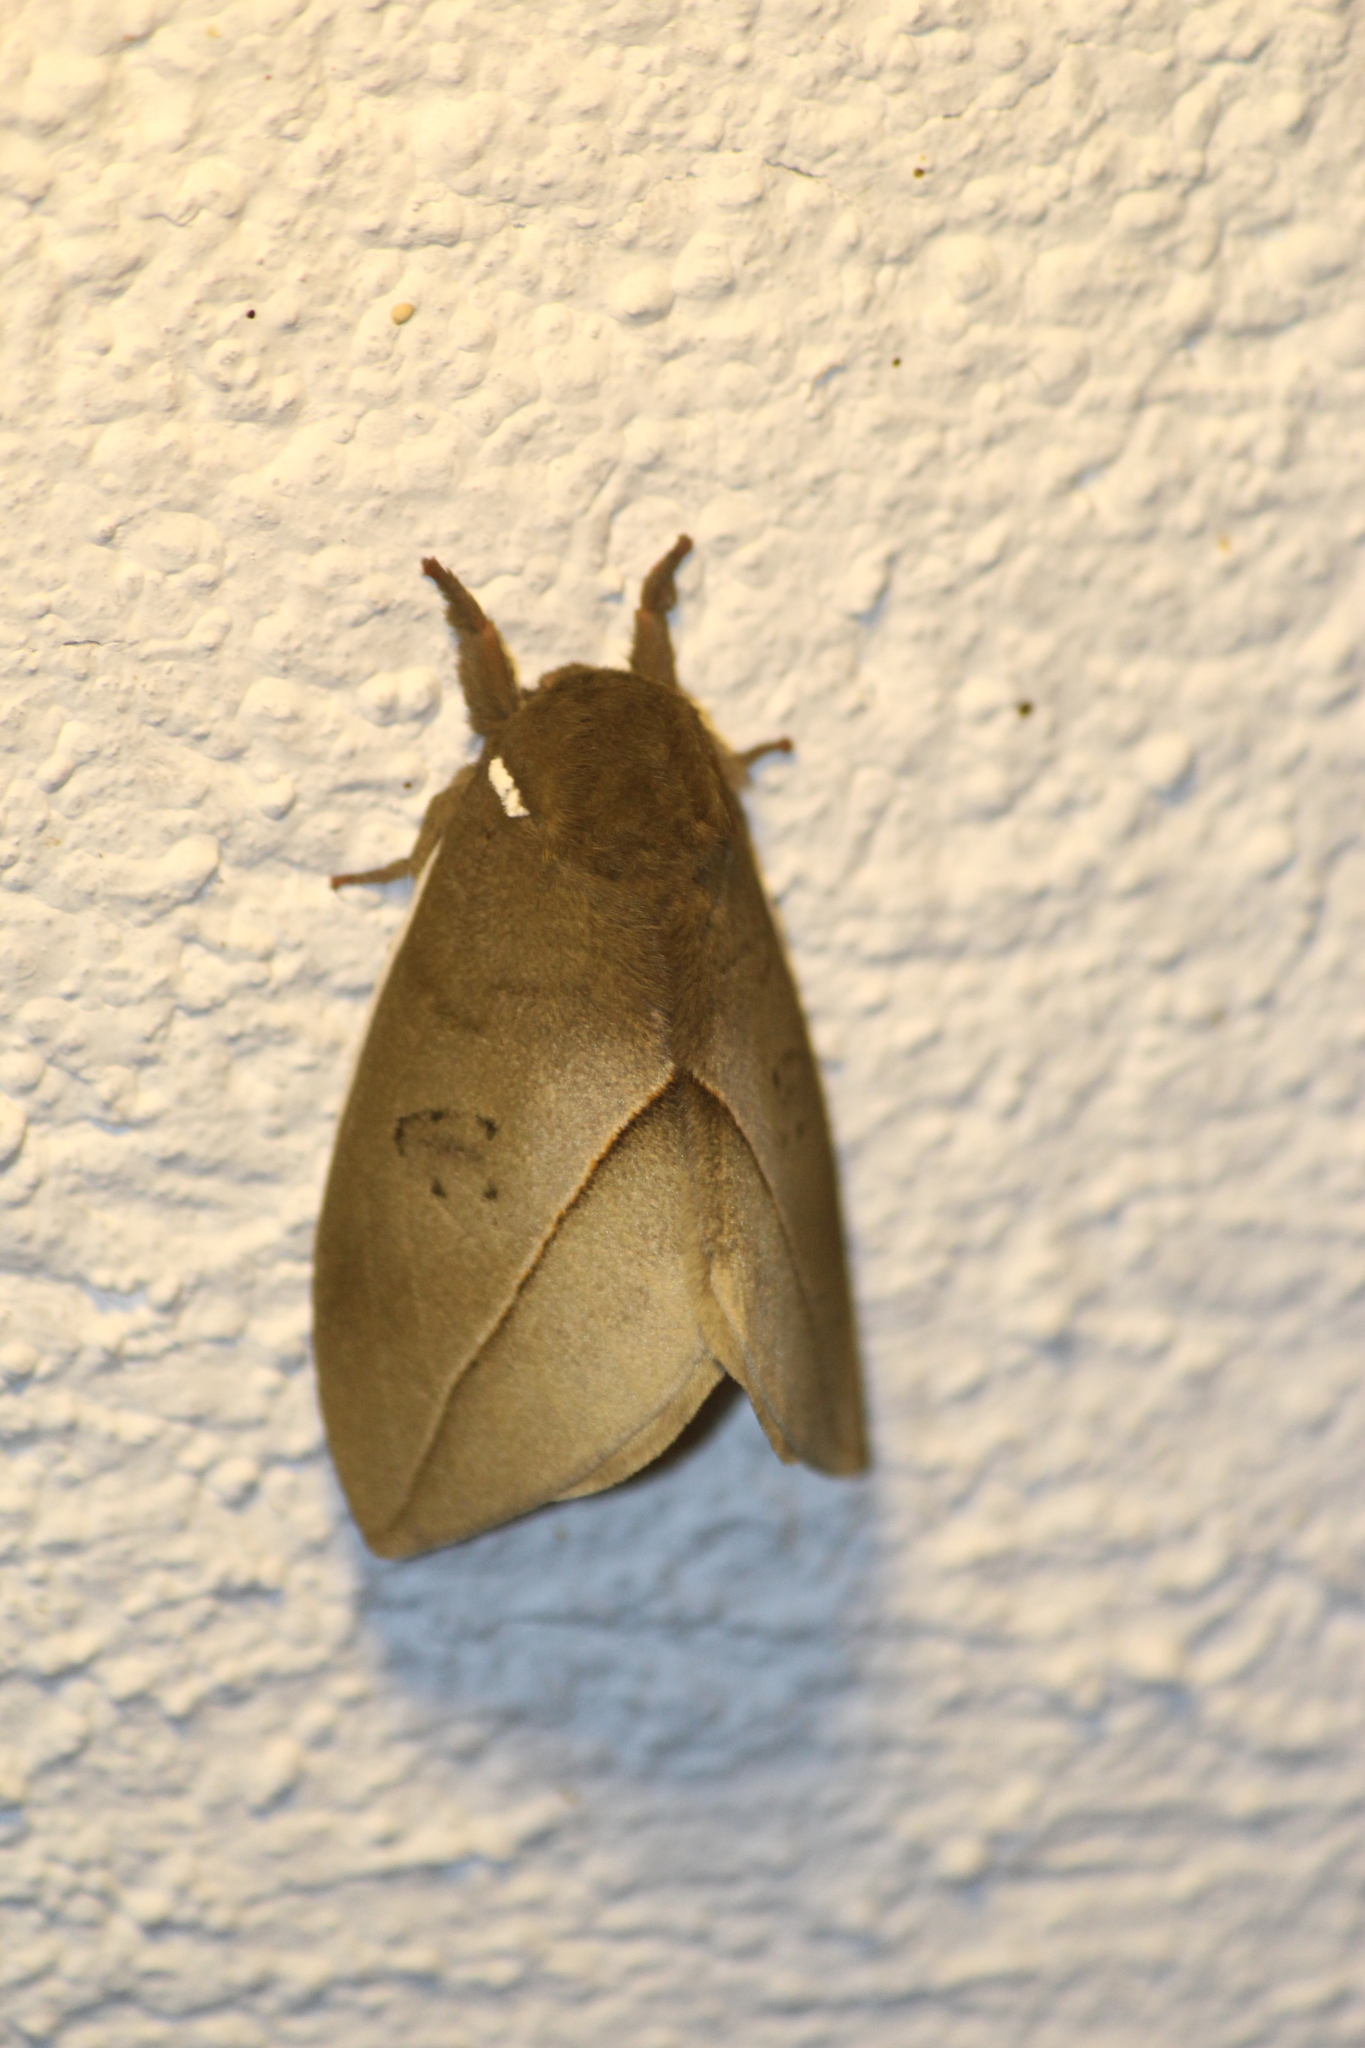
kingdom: Animalia
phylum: Arthropoda
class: Insecta
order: Lepidoptera
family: Saturniidae
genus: Automeris
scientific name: Automeris belti
